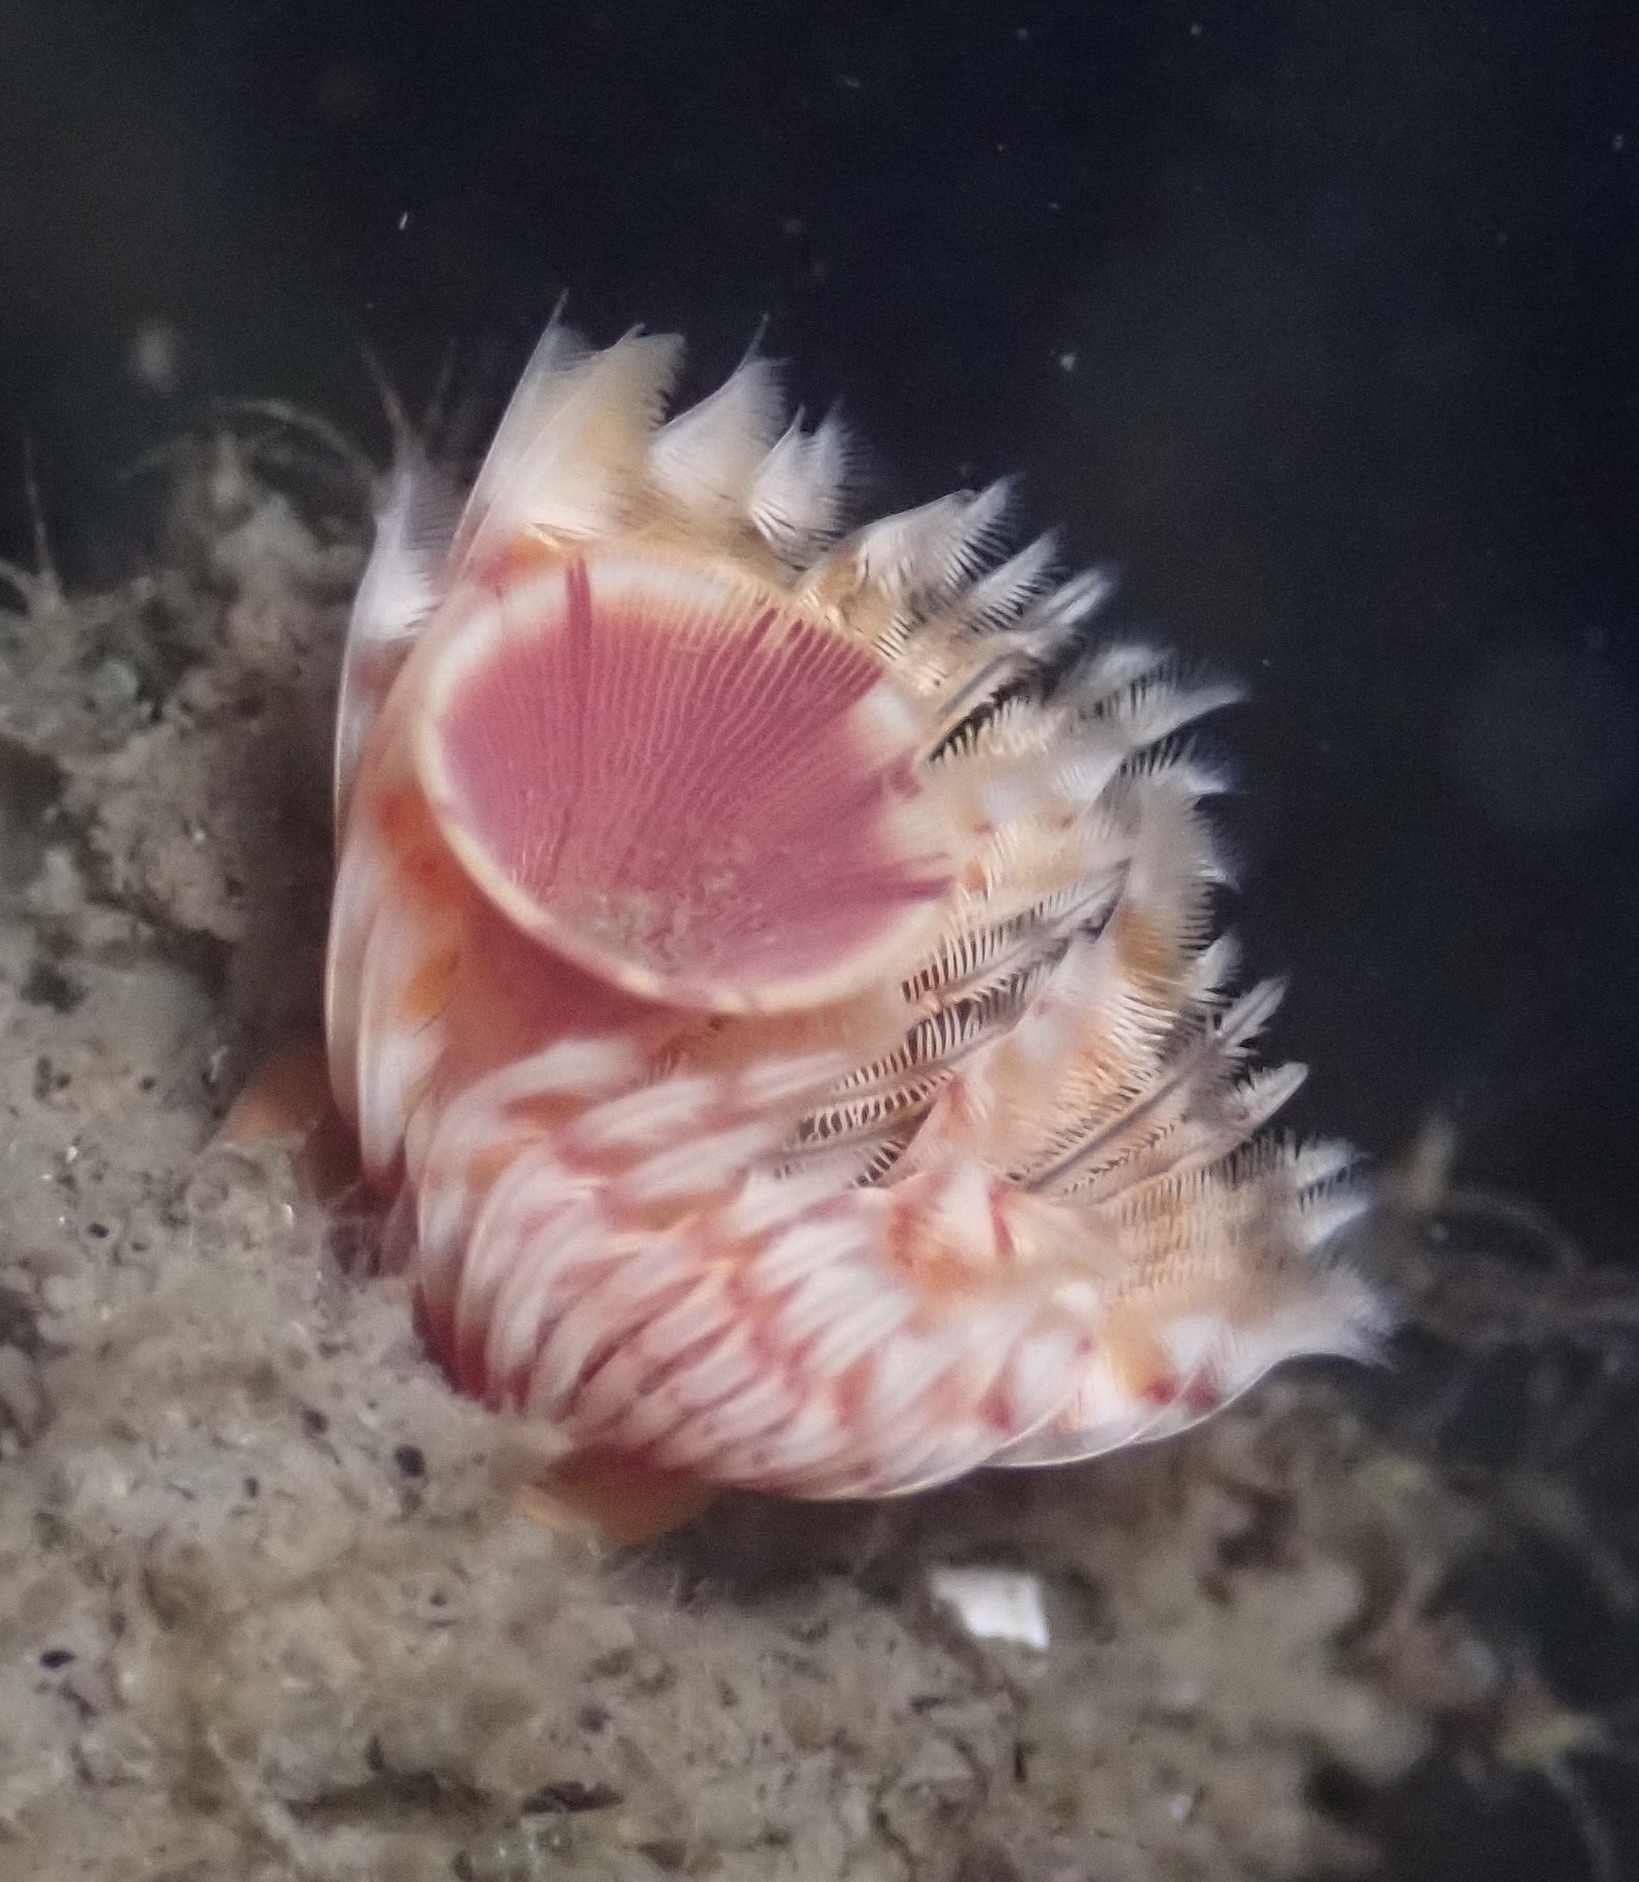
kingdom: Animalia
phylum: Annelida
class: Polychaeta
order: Sabellida
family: Serpulidae
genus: Serpula
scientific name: Serpula columbiana
